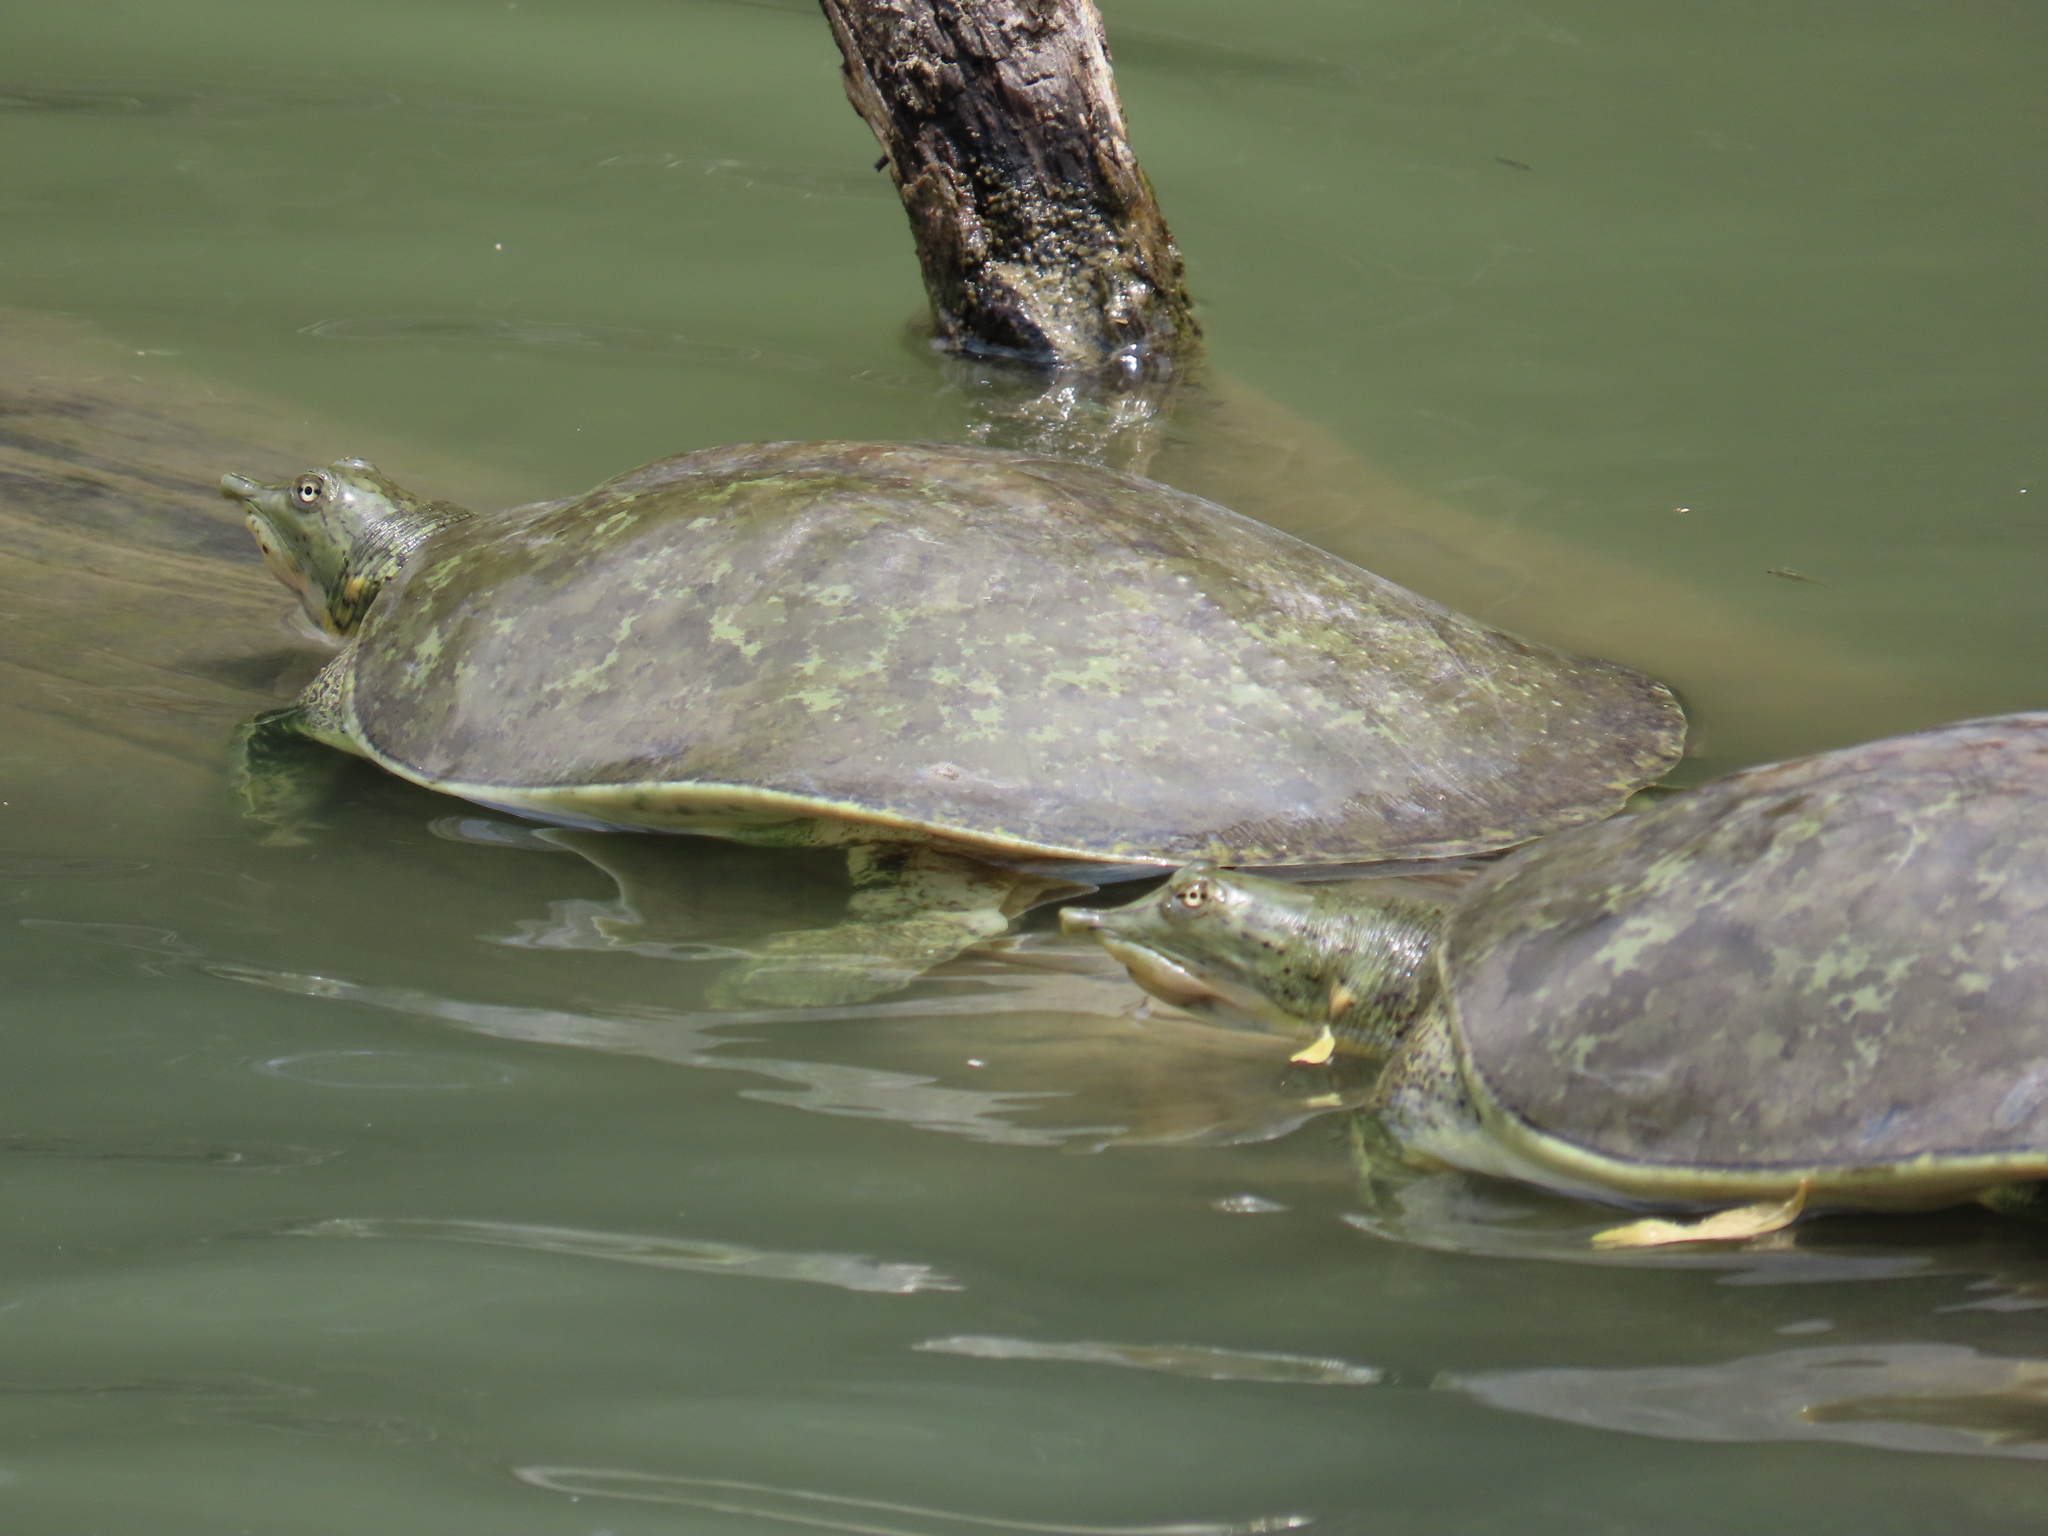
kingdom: Animalia
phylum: Chordata
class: Testudines
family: Trionychidae
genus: Apalone
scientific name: Apalone spinifera
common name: Spiny softshell turtle
